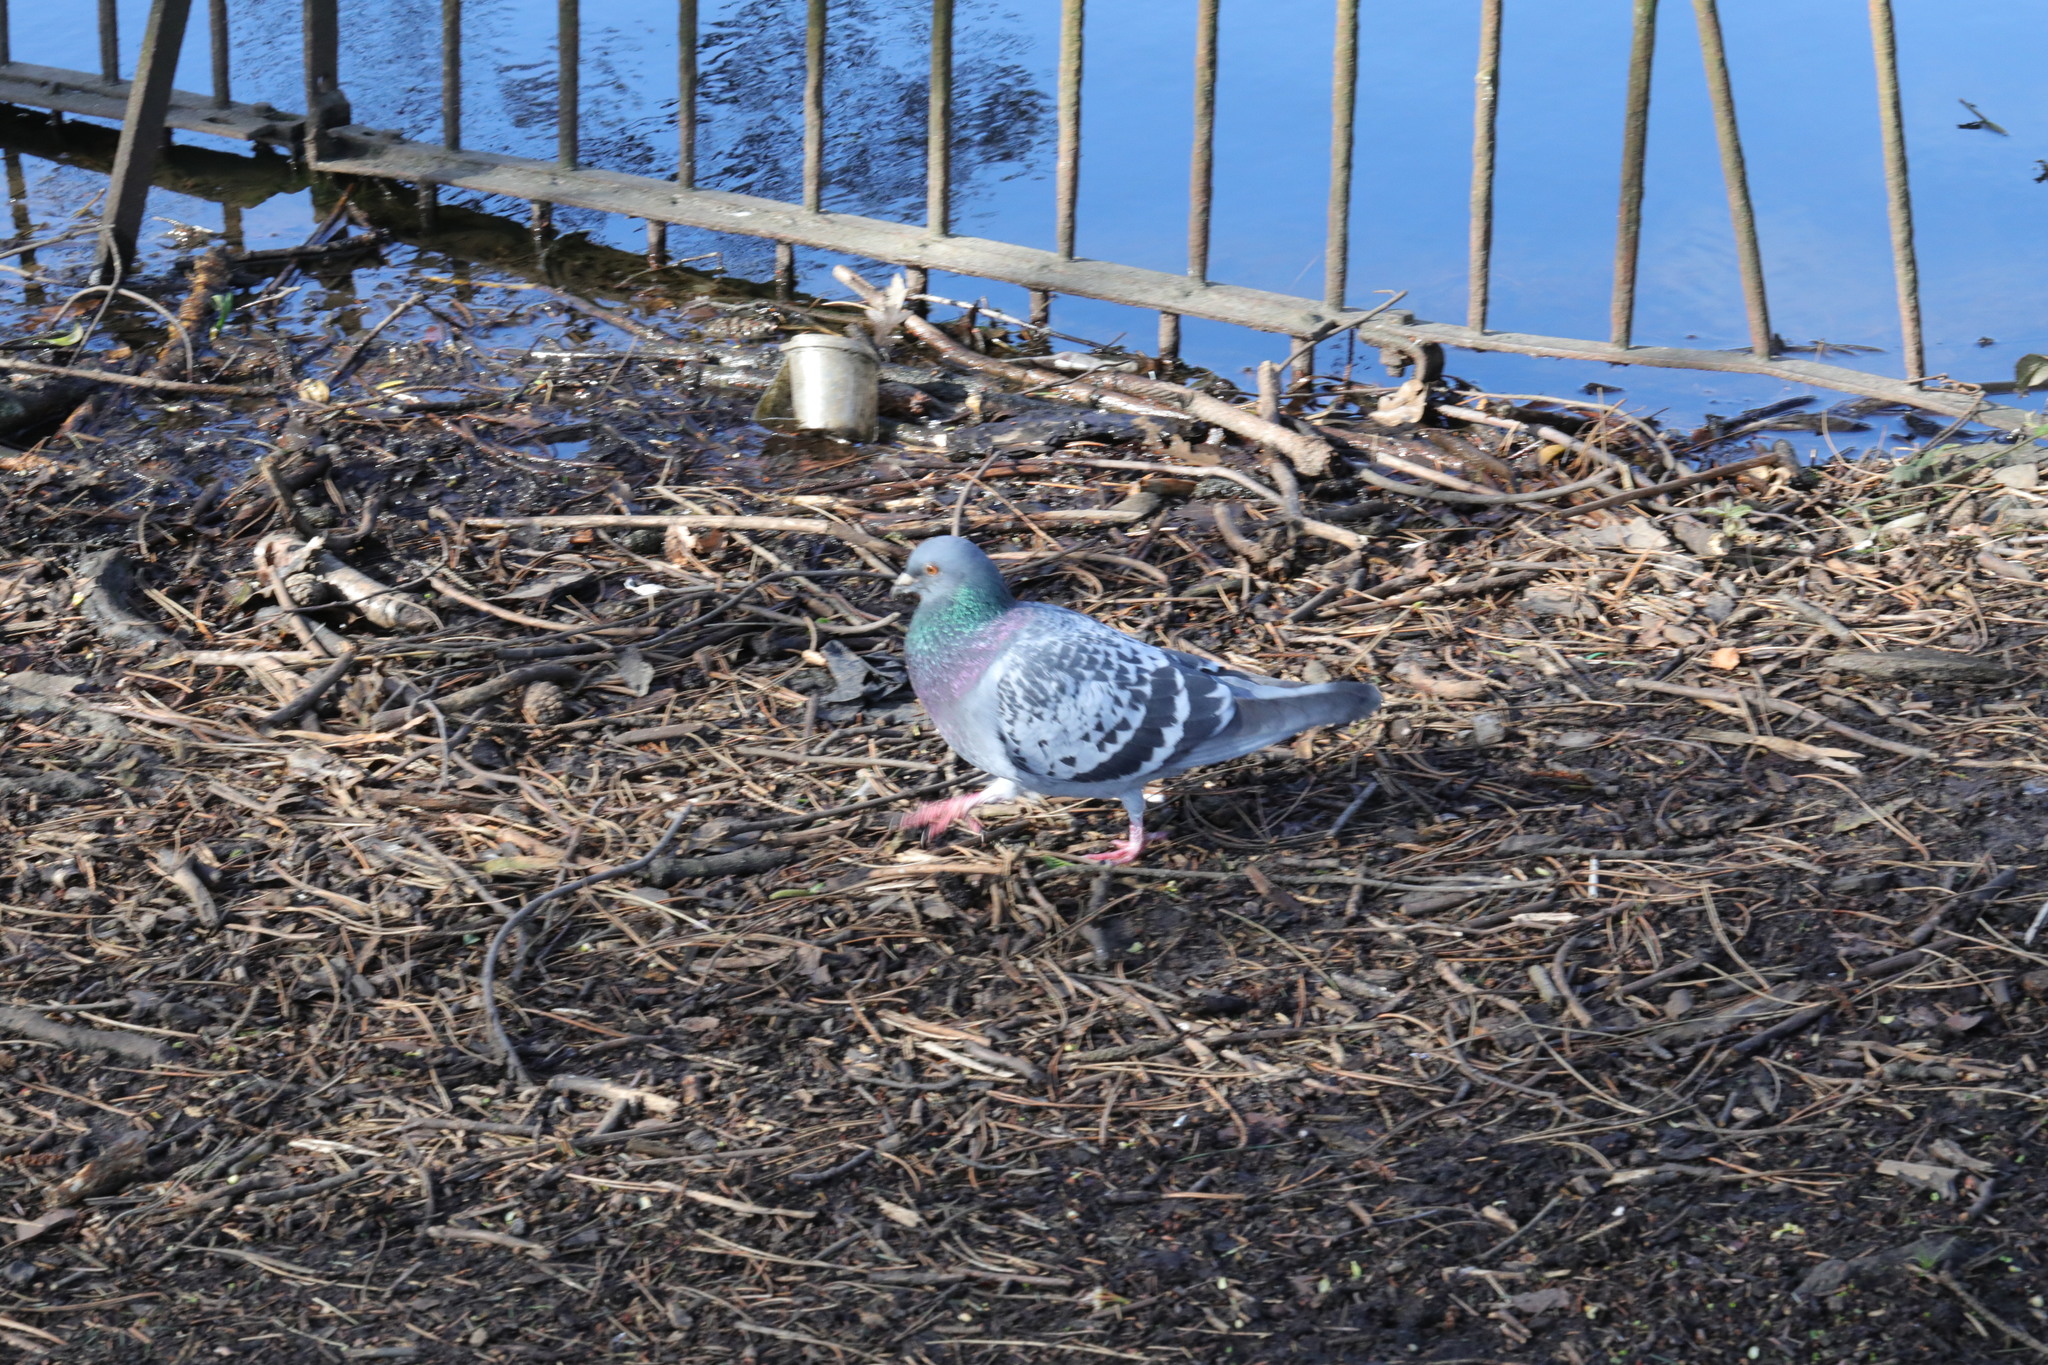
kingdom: Animalia
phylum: Chordata
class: Aves
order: Columbiformes
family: Columbidae
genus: Columba
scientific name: Columba livia
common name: Rock pigeon
